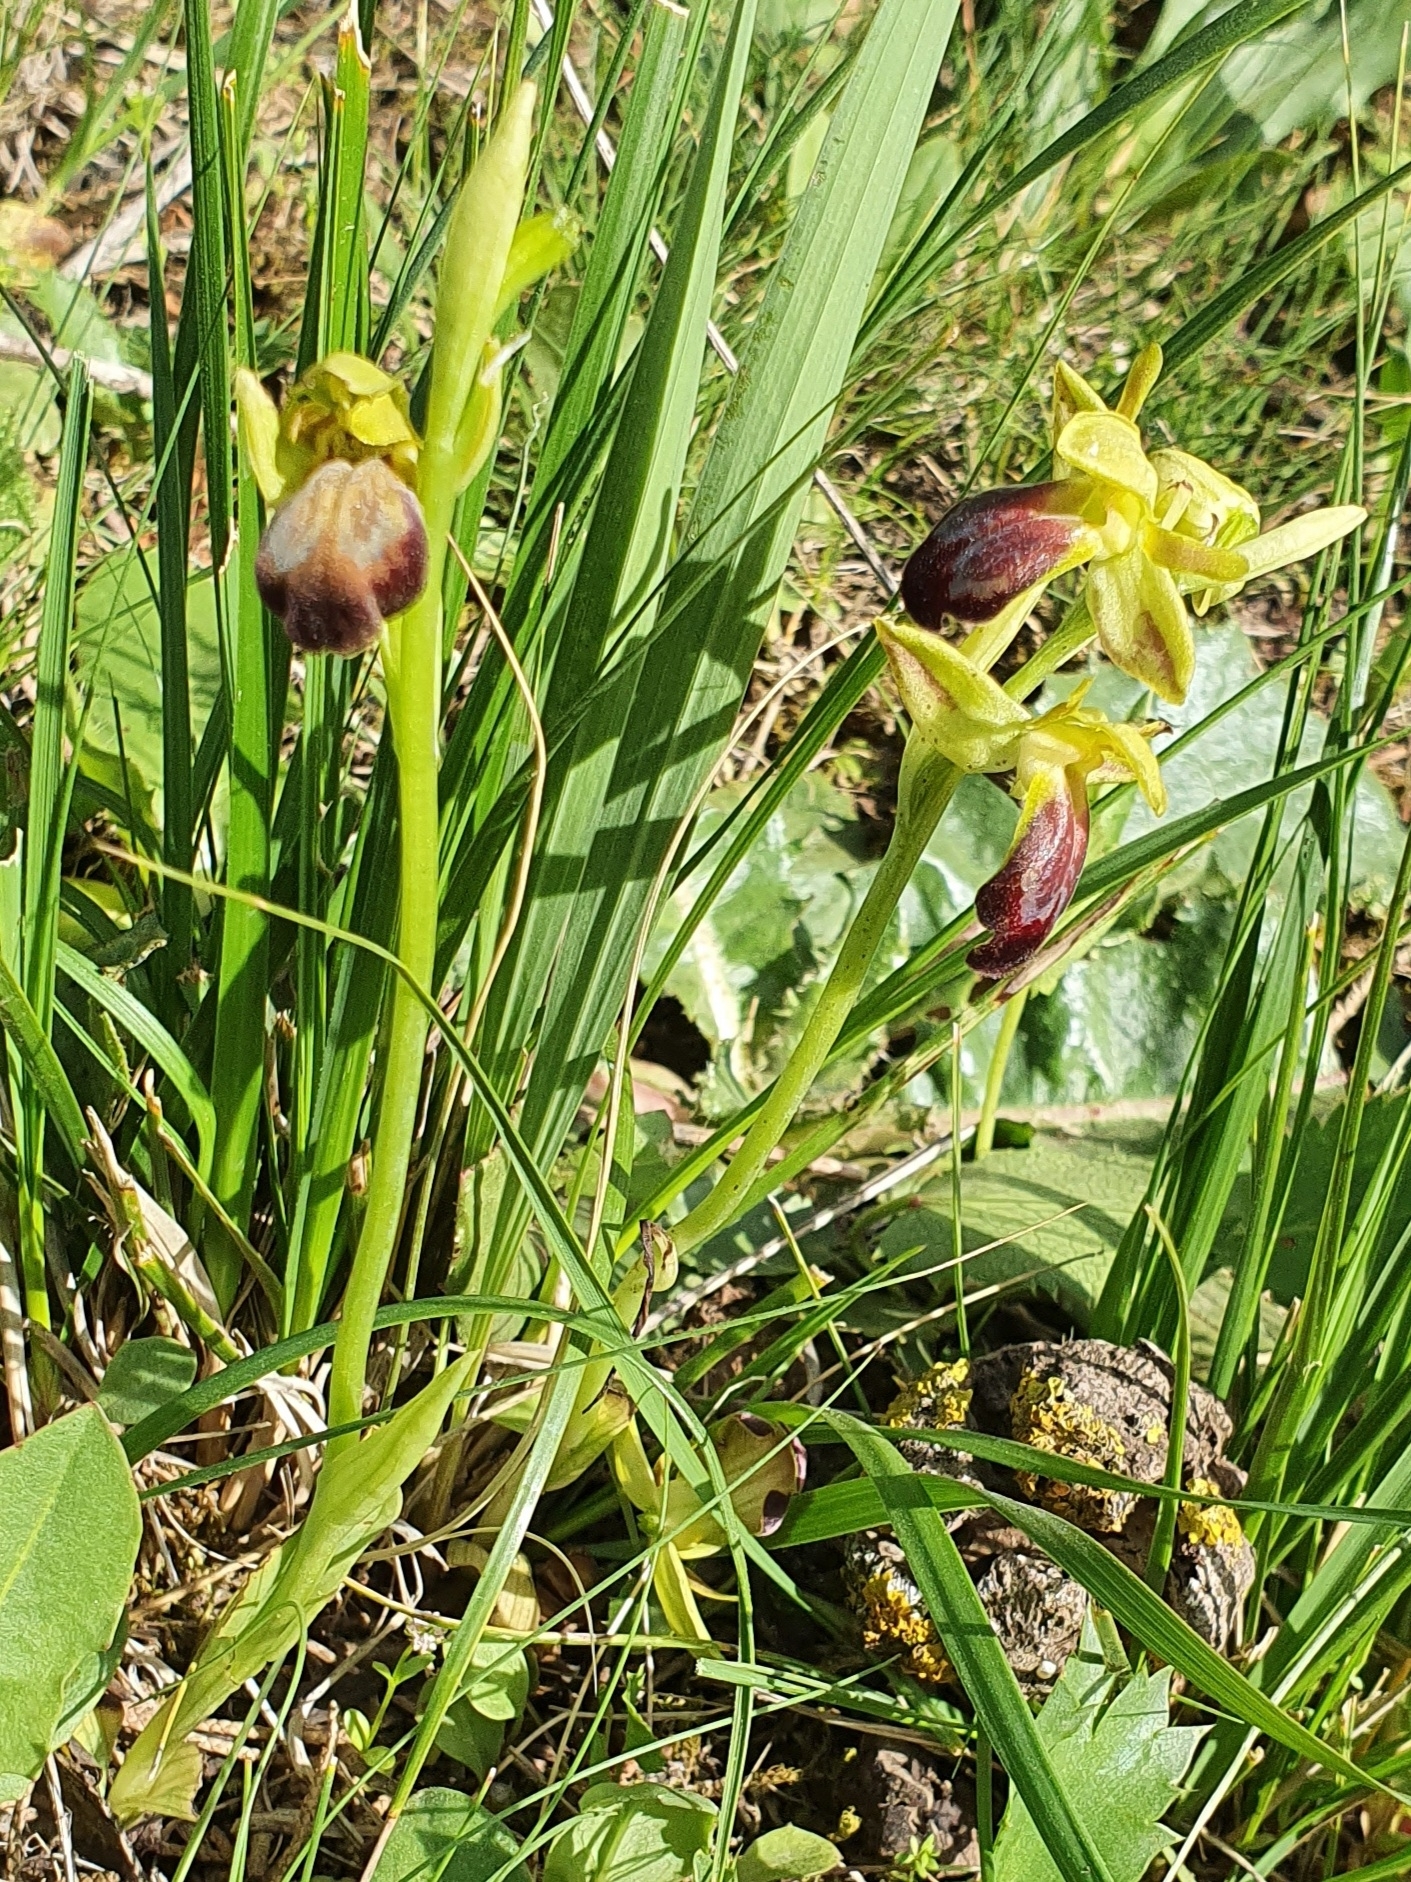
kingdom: Plantae
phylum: Tracheophyta
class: Liliopsida
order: Asparagales
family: Orchidaceae
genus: Ophrys
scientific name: Ophrys fusca
